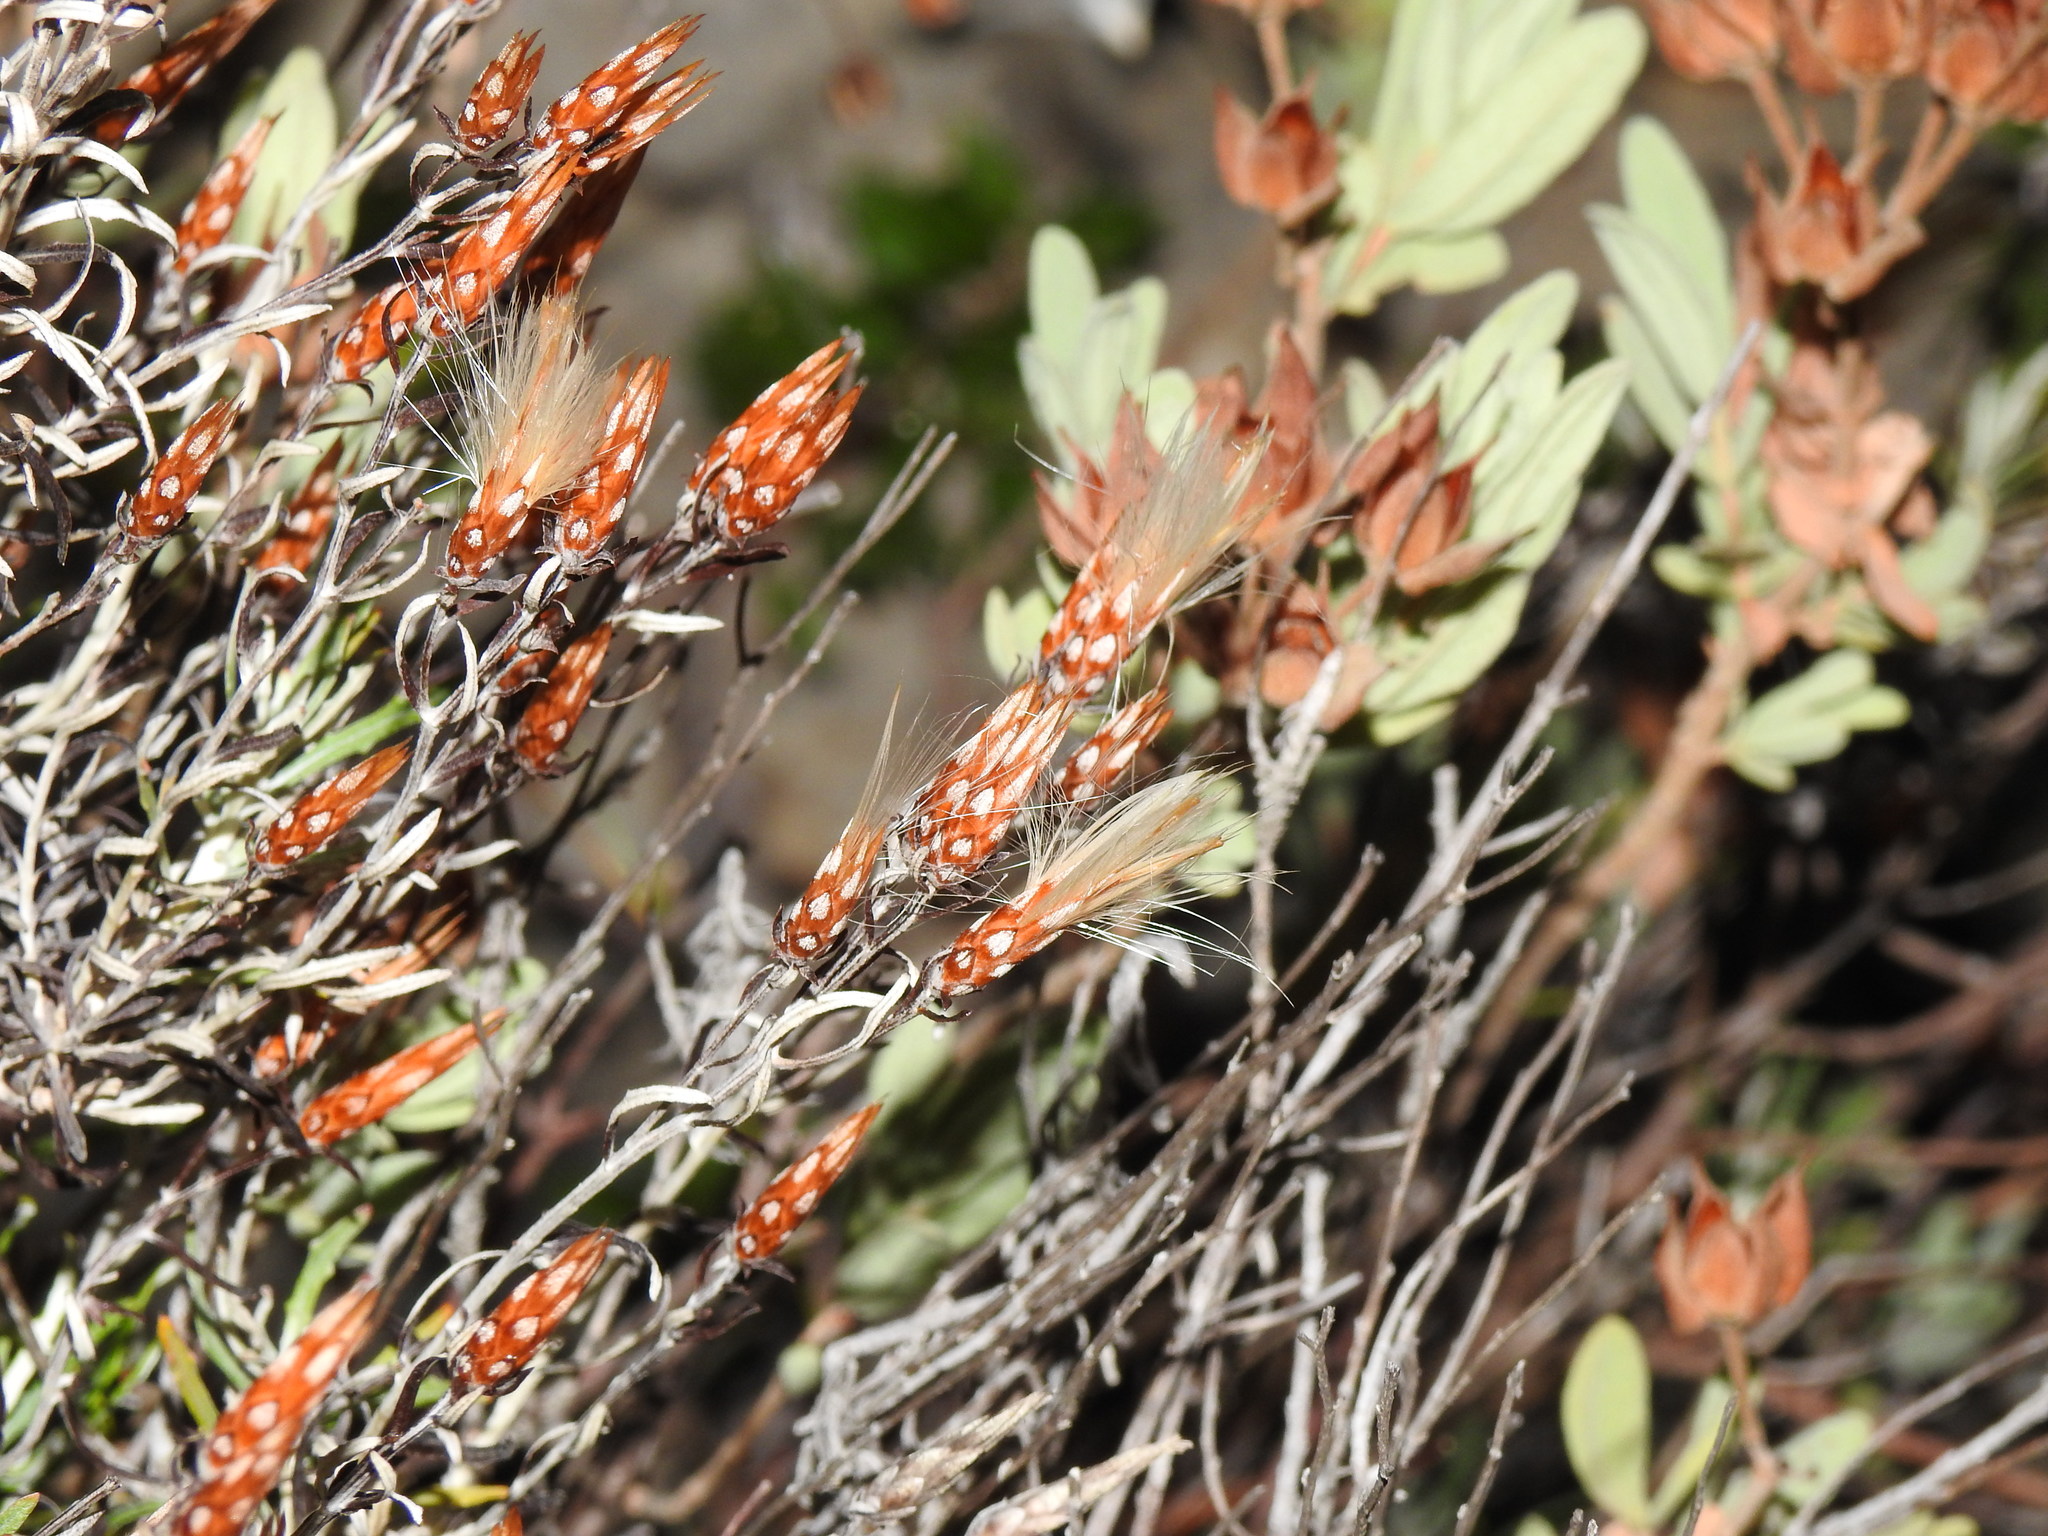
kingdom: Plantae
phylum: Tracheophyta
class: Magnoliopsida
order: Asterales
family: Asteraceae
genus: Staehelina
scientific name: Staehelina dubia
